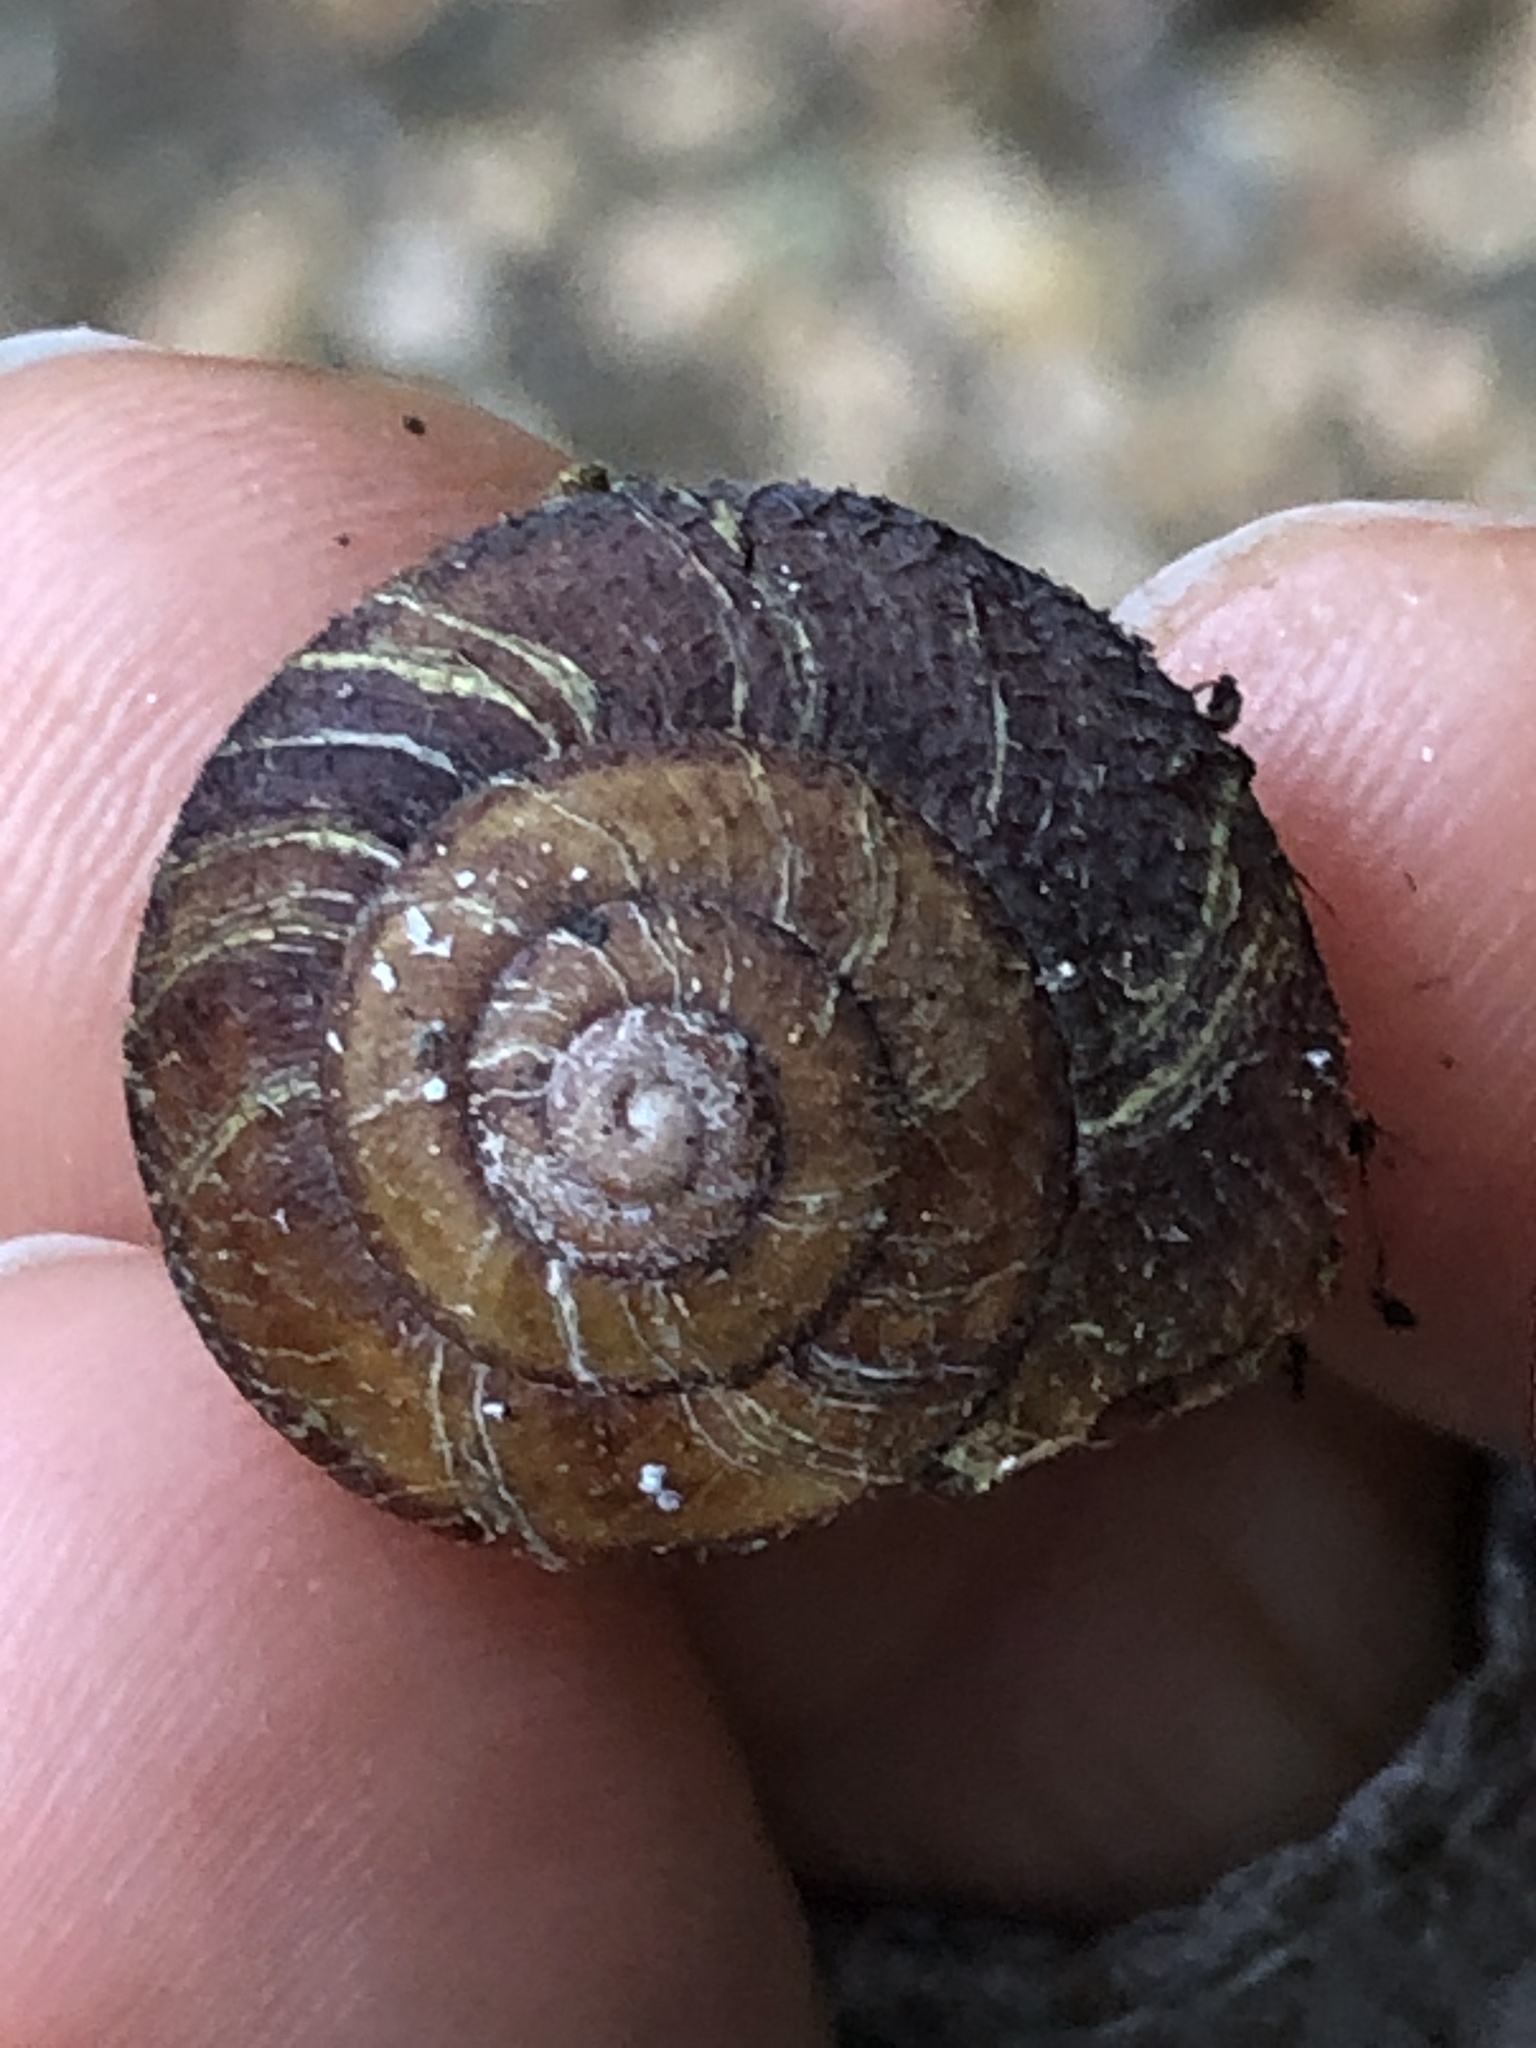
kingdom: Animalia
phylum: Mollusca
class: Gastropoda
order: Stylommatophora
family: Xanthonychidae
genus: Monadenia
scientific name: Monadenia infumata
